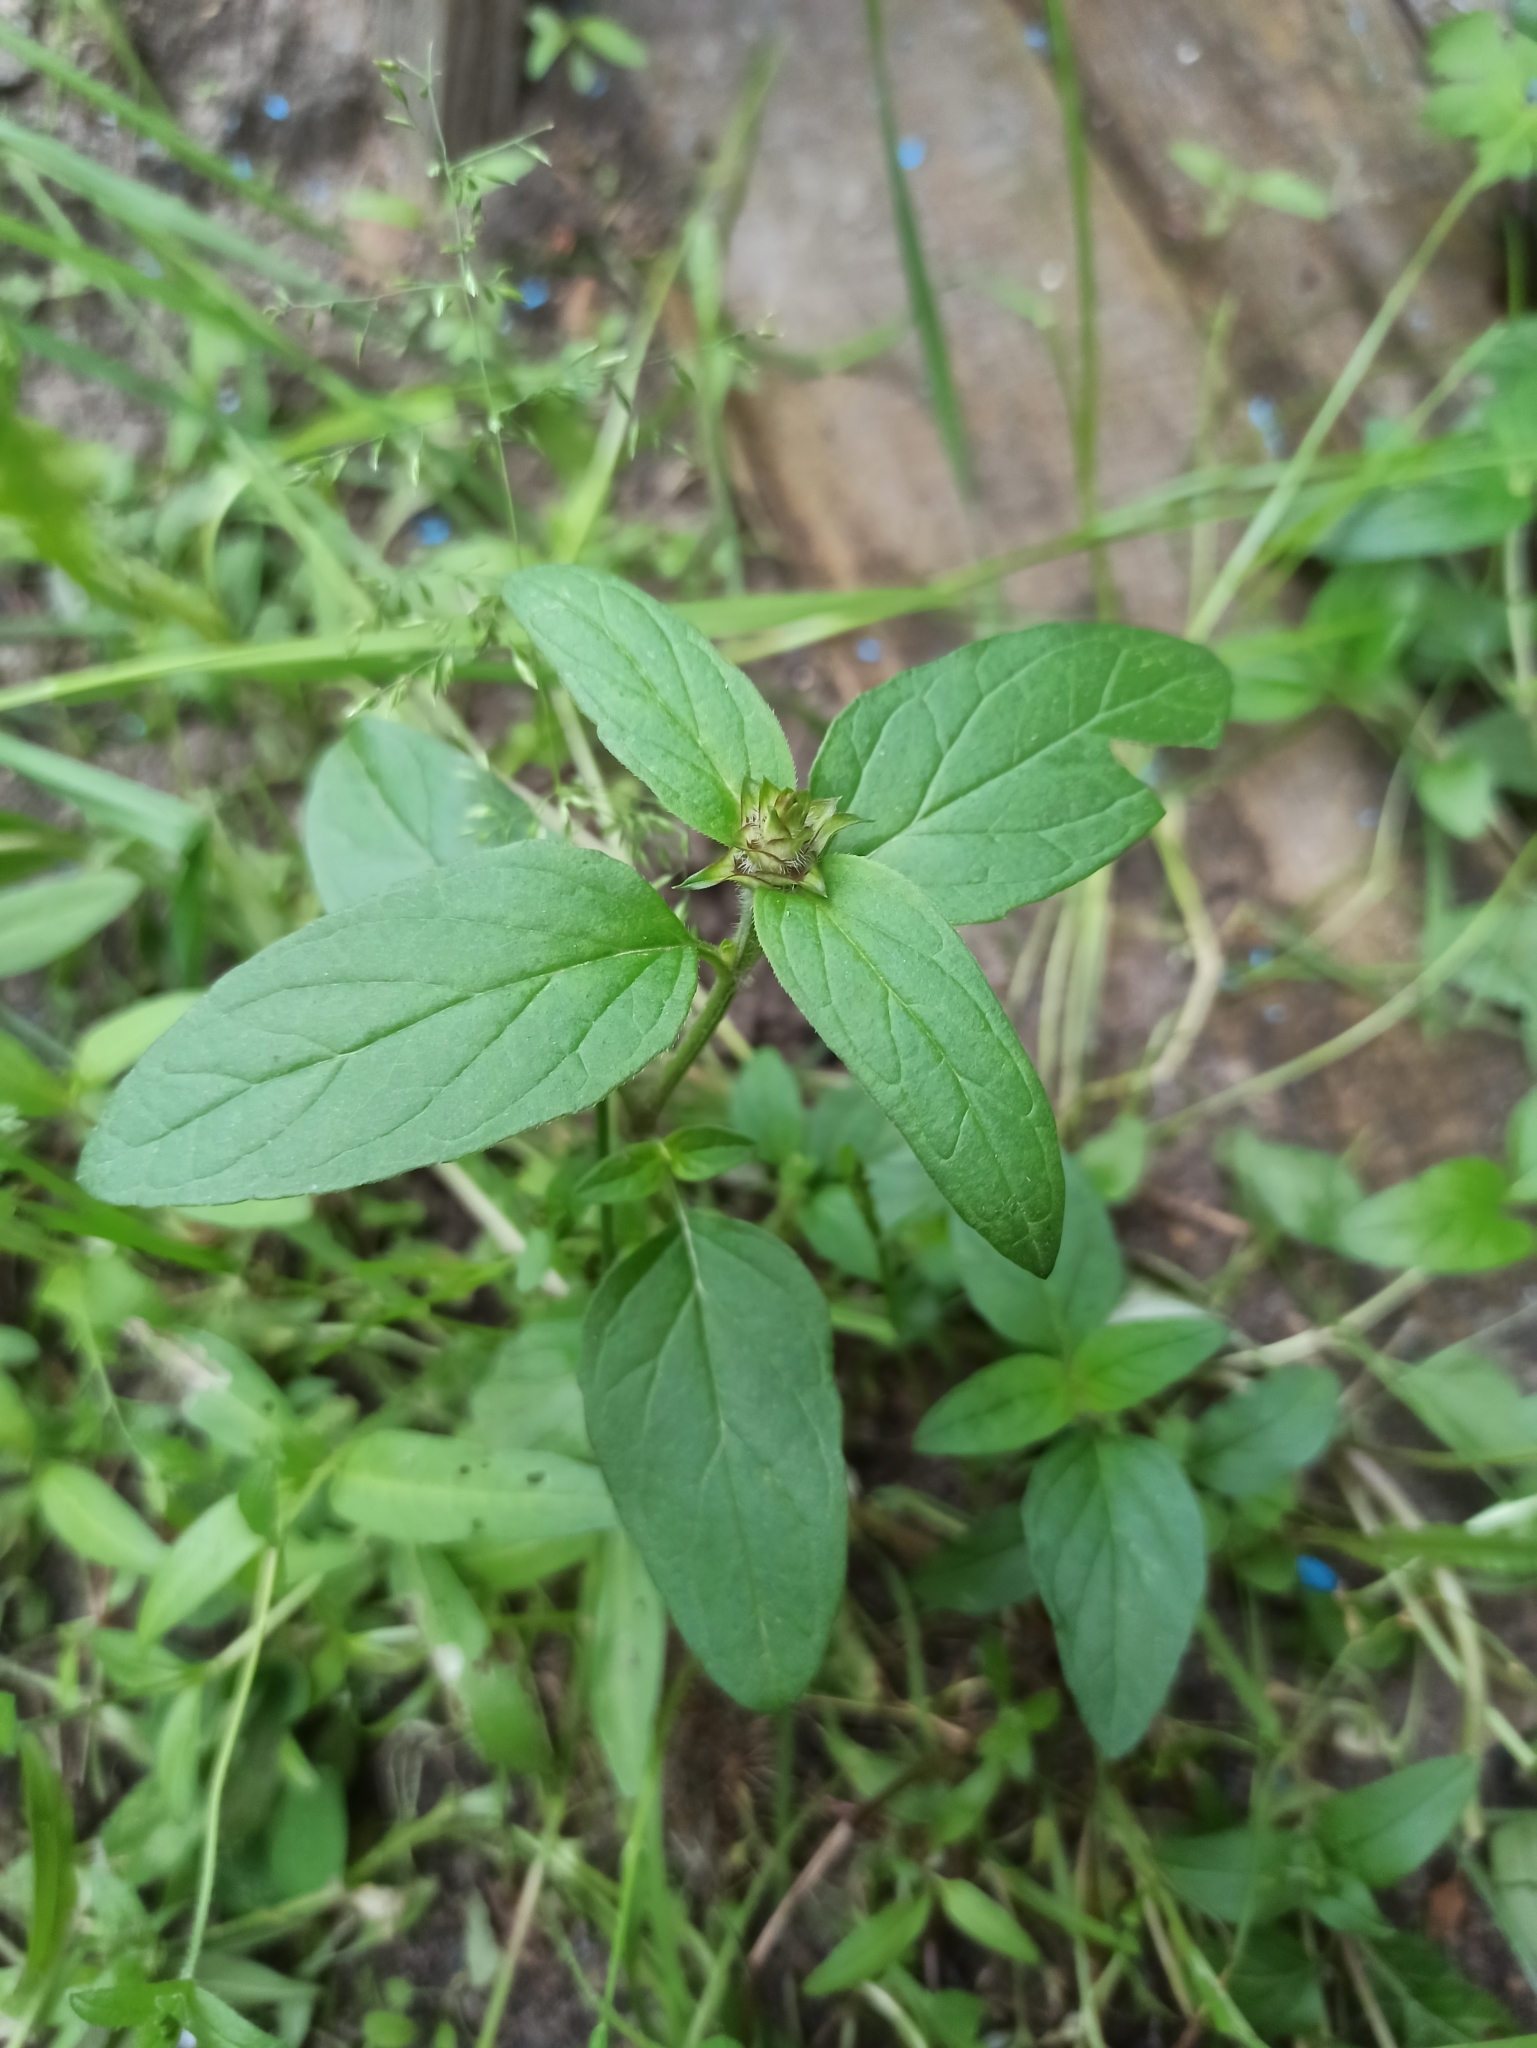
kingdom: Plantae
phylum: Tracheophyta
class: Magnoliopsida
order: Lamiales
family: Lamiaceae
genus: Prunella
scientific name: Prunella vulgaris
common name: Heal-all
